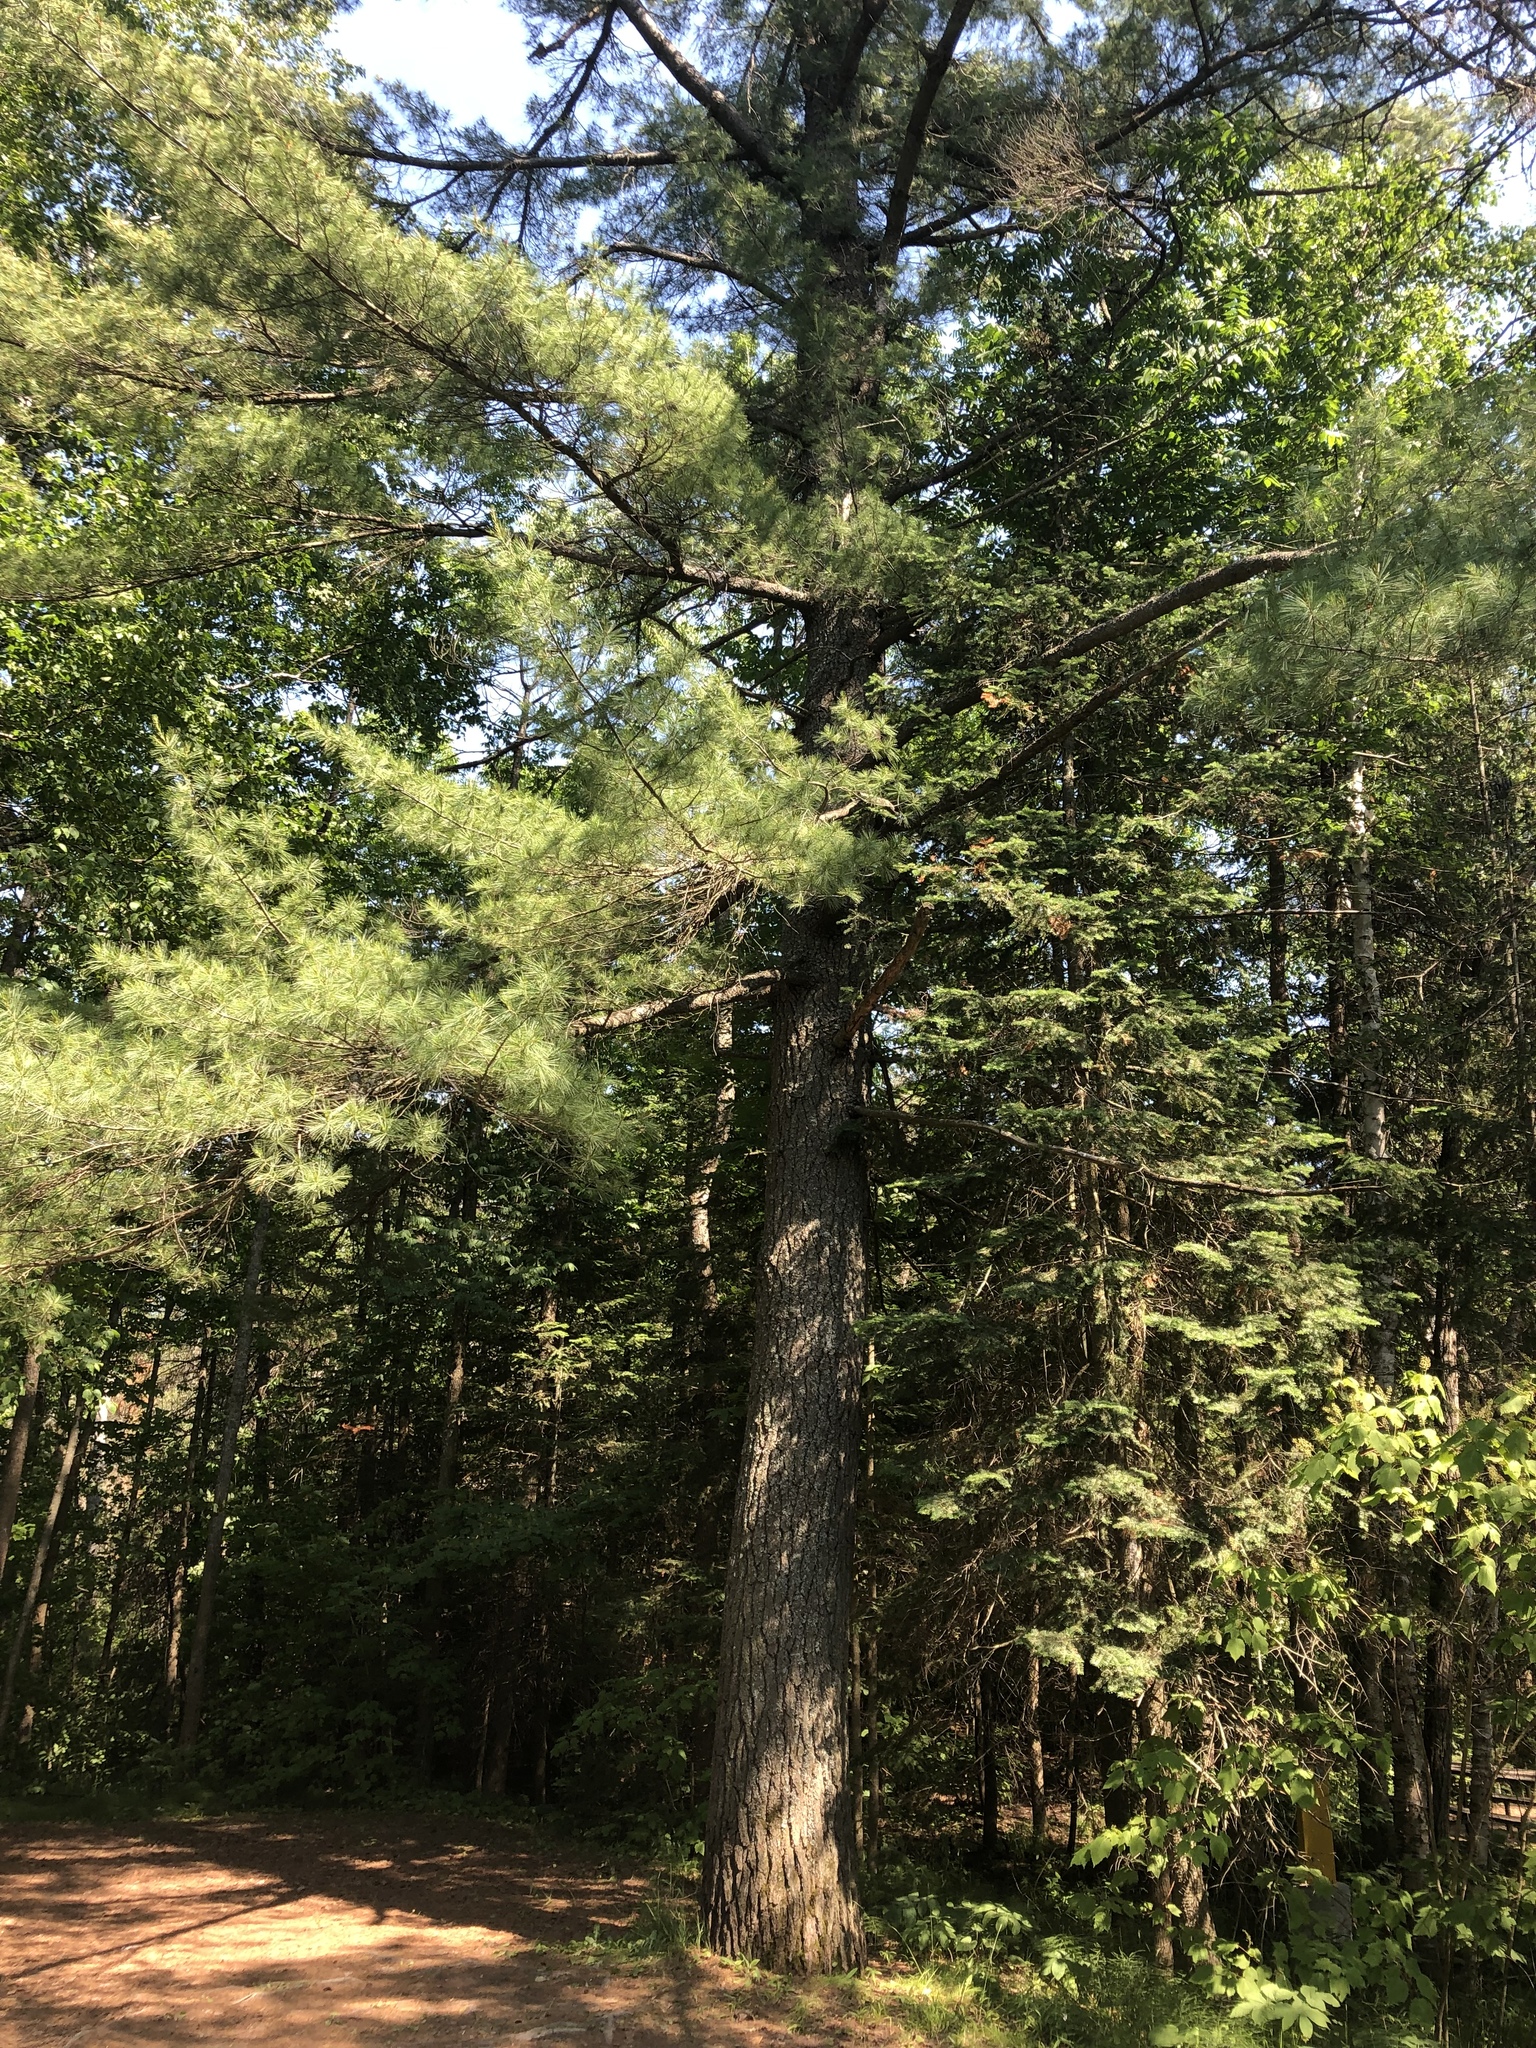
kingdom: Plantae
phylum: Tracheophyta
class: Pinopsida
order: Pinales
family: Pinaceae
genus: Pinus
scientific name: Pinus strobus
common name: Weymouth pine
